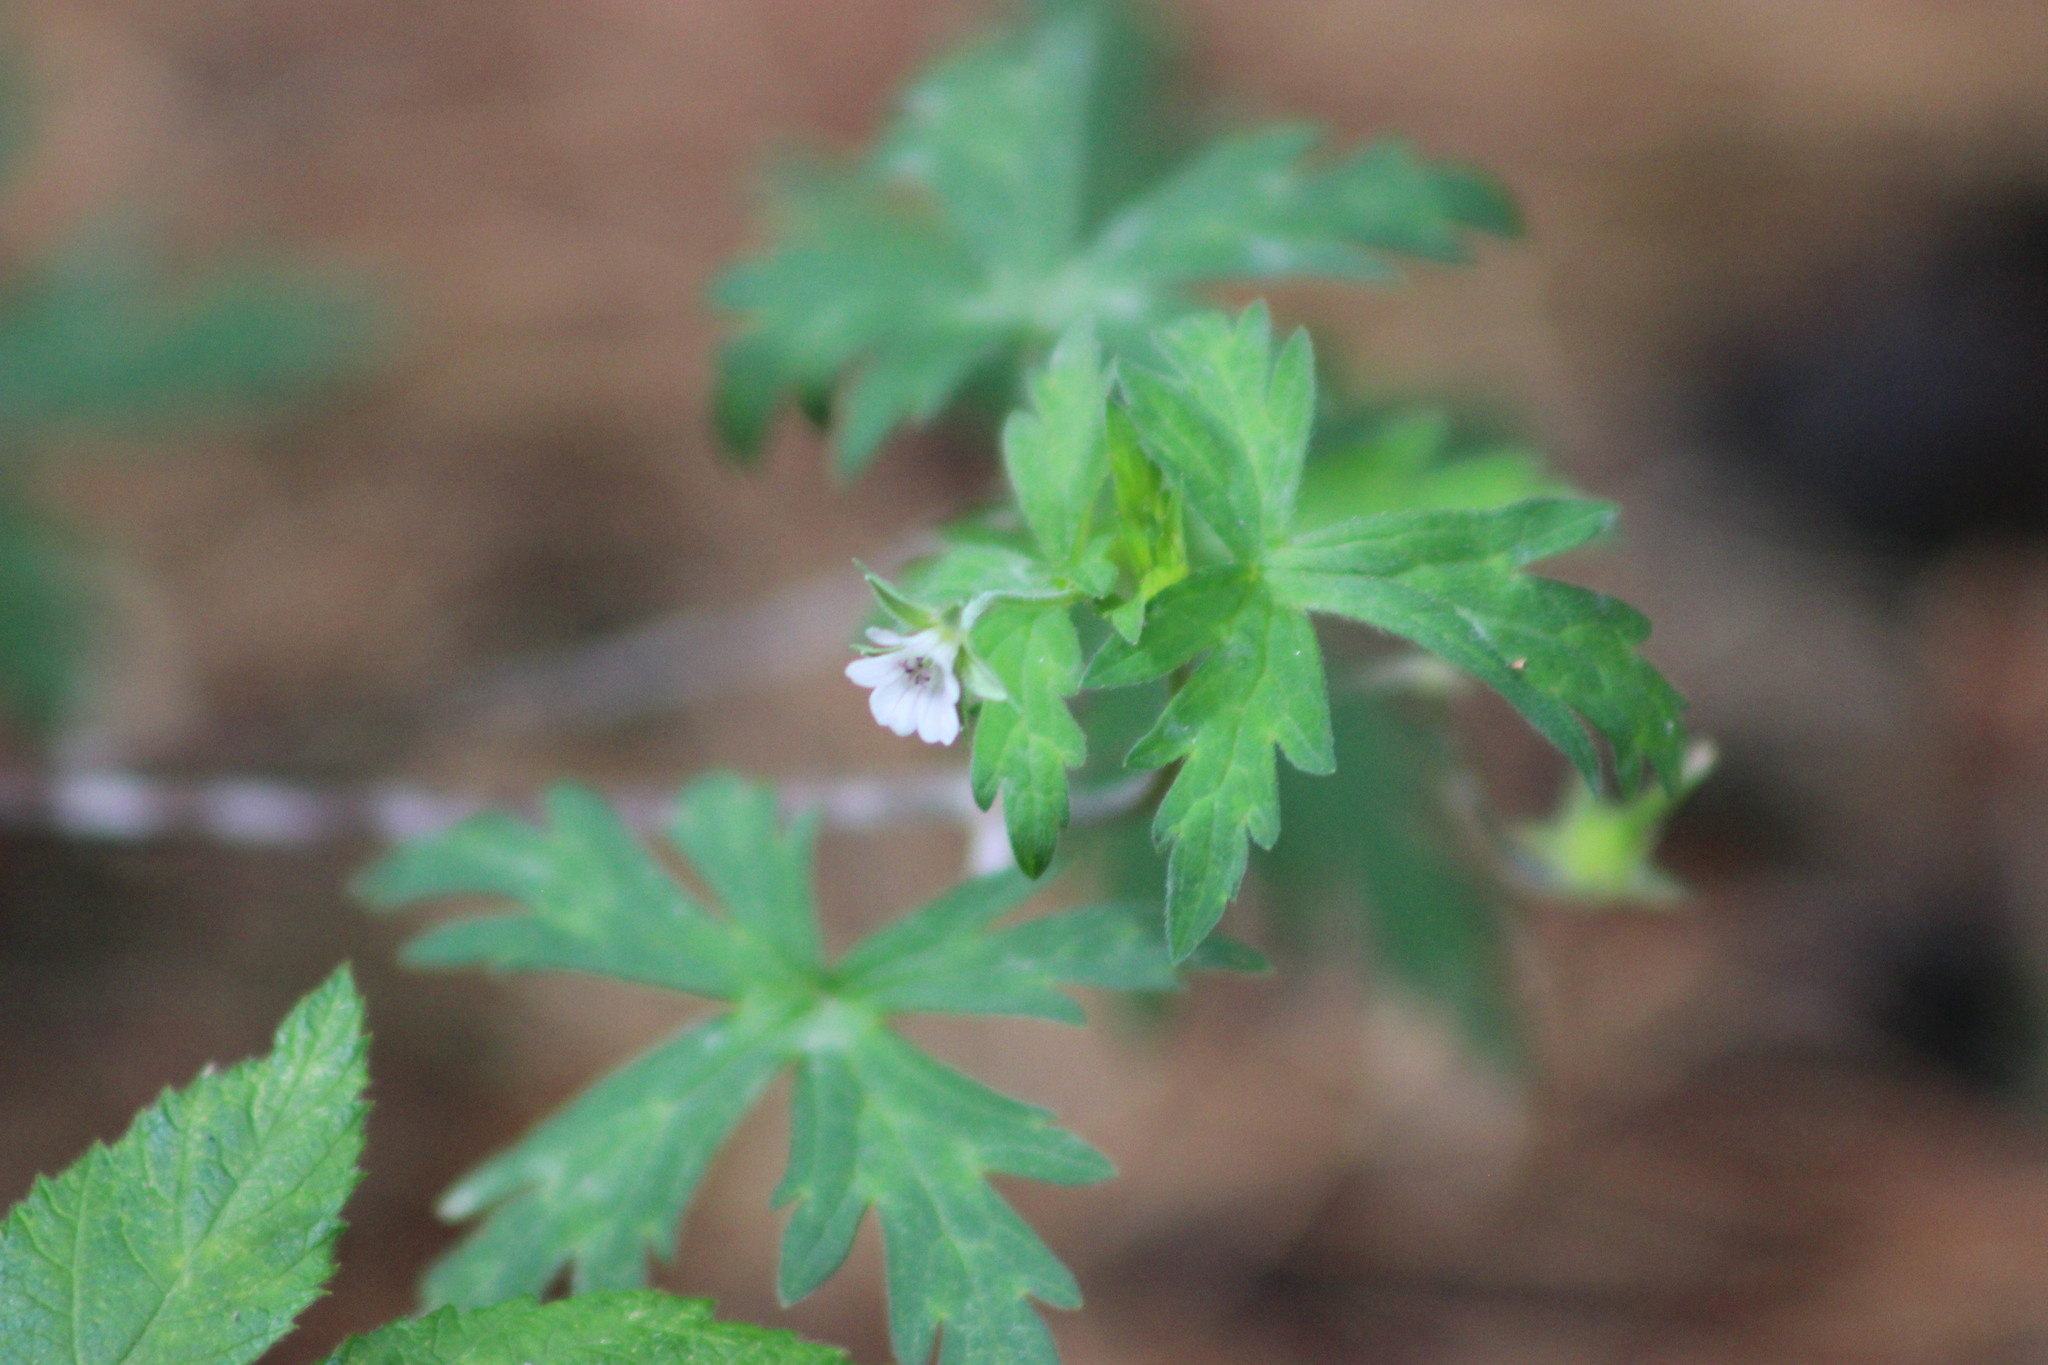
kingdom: Plantae
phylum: Tracheophyta
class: Magnoliopsida
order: Geraniales
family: Geraniaceae
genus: Geranium
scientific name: Geranium sibiricum
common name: Siberian crane's-bill
